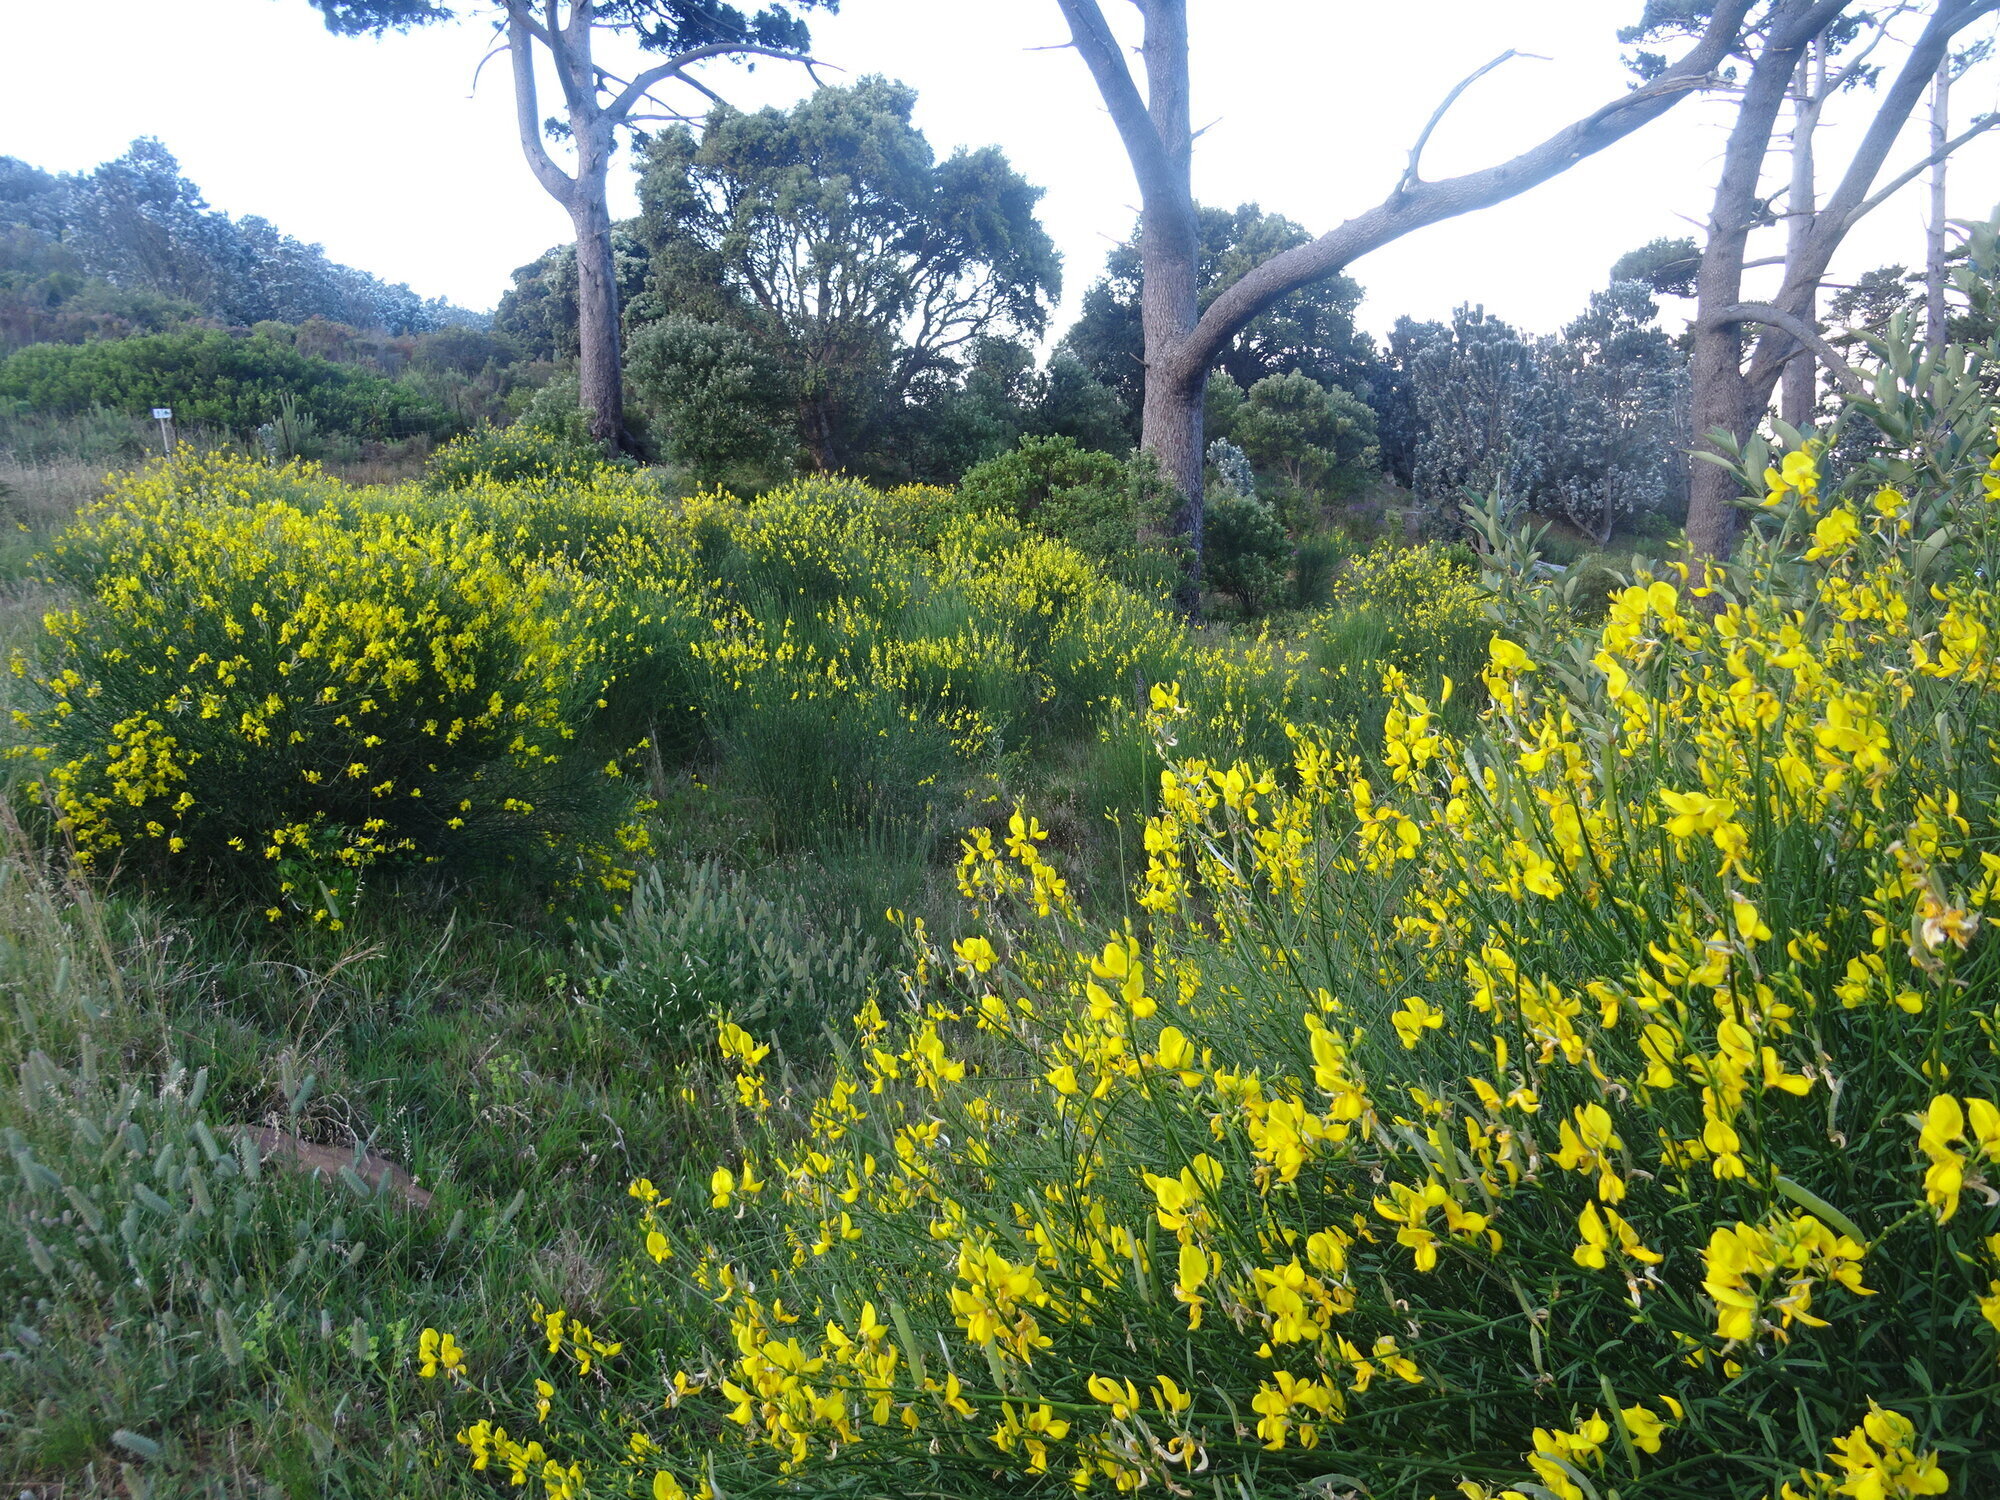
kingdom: Plantae
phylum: Tracheophyta
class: Magnoliopsida
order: Fabales
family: Fabaceae
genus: Spartium
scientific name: Spartium junceum
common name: Spanish broom
